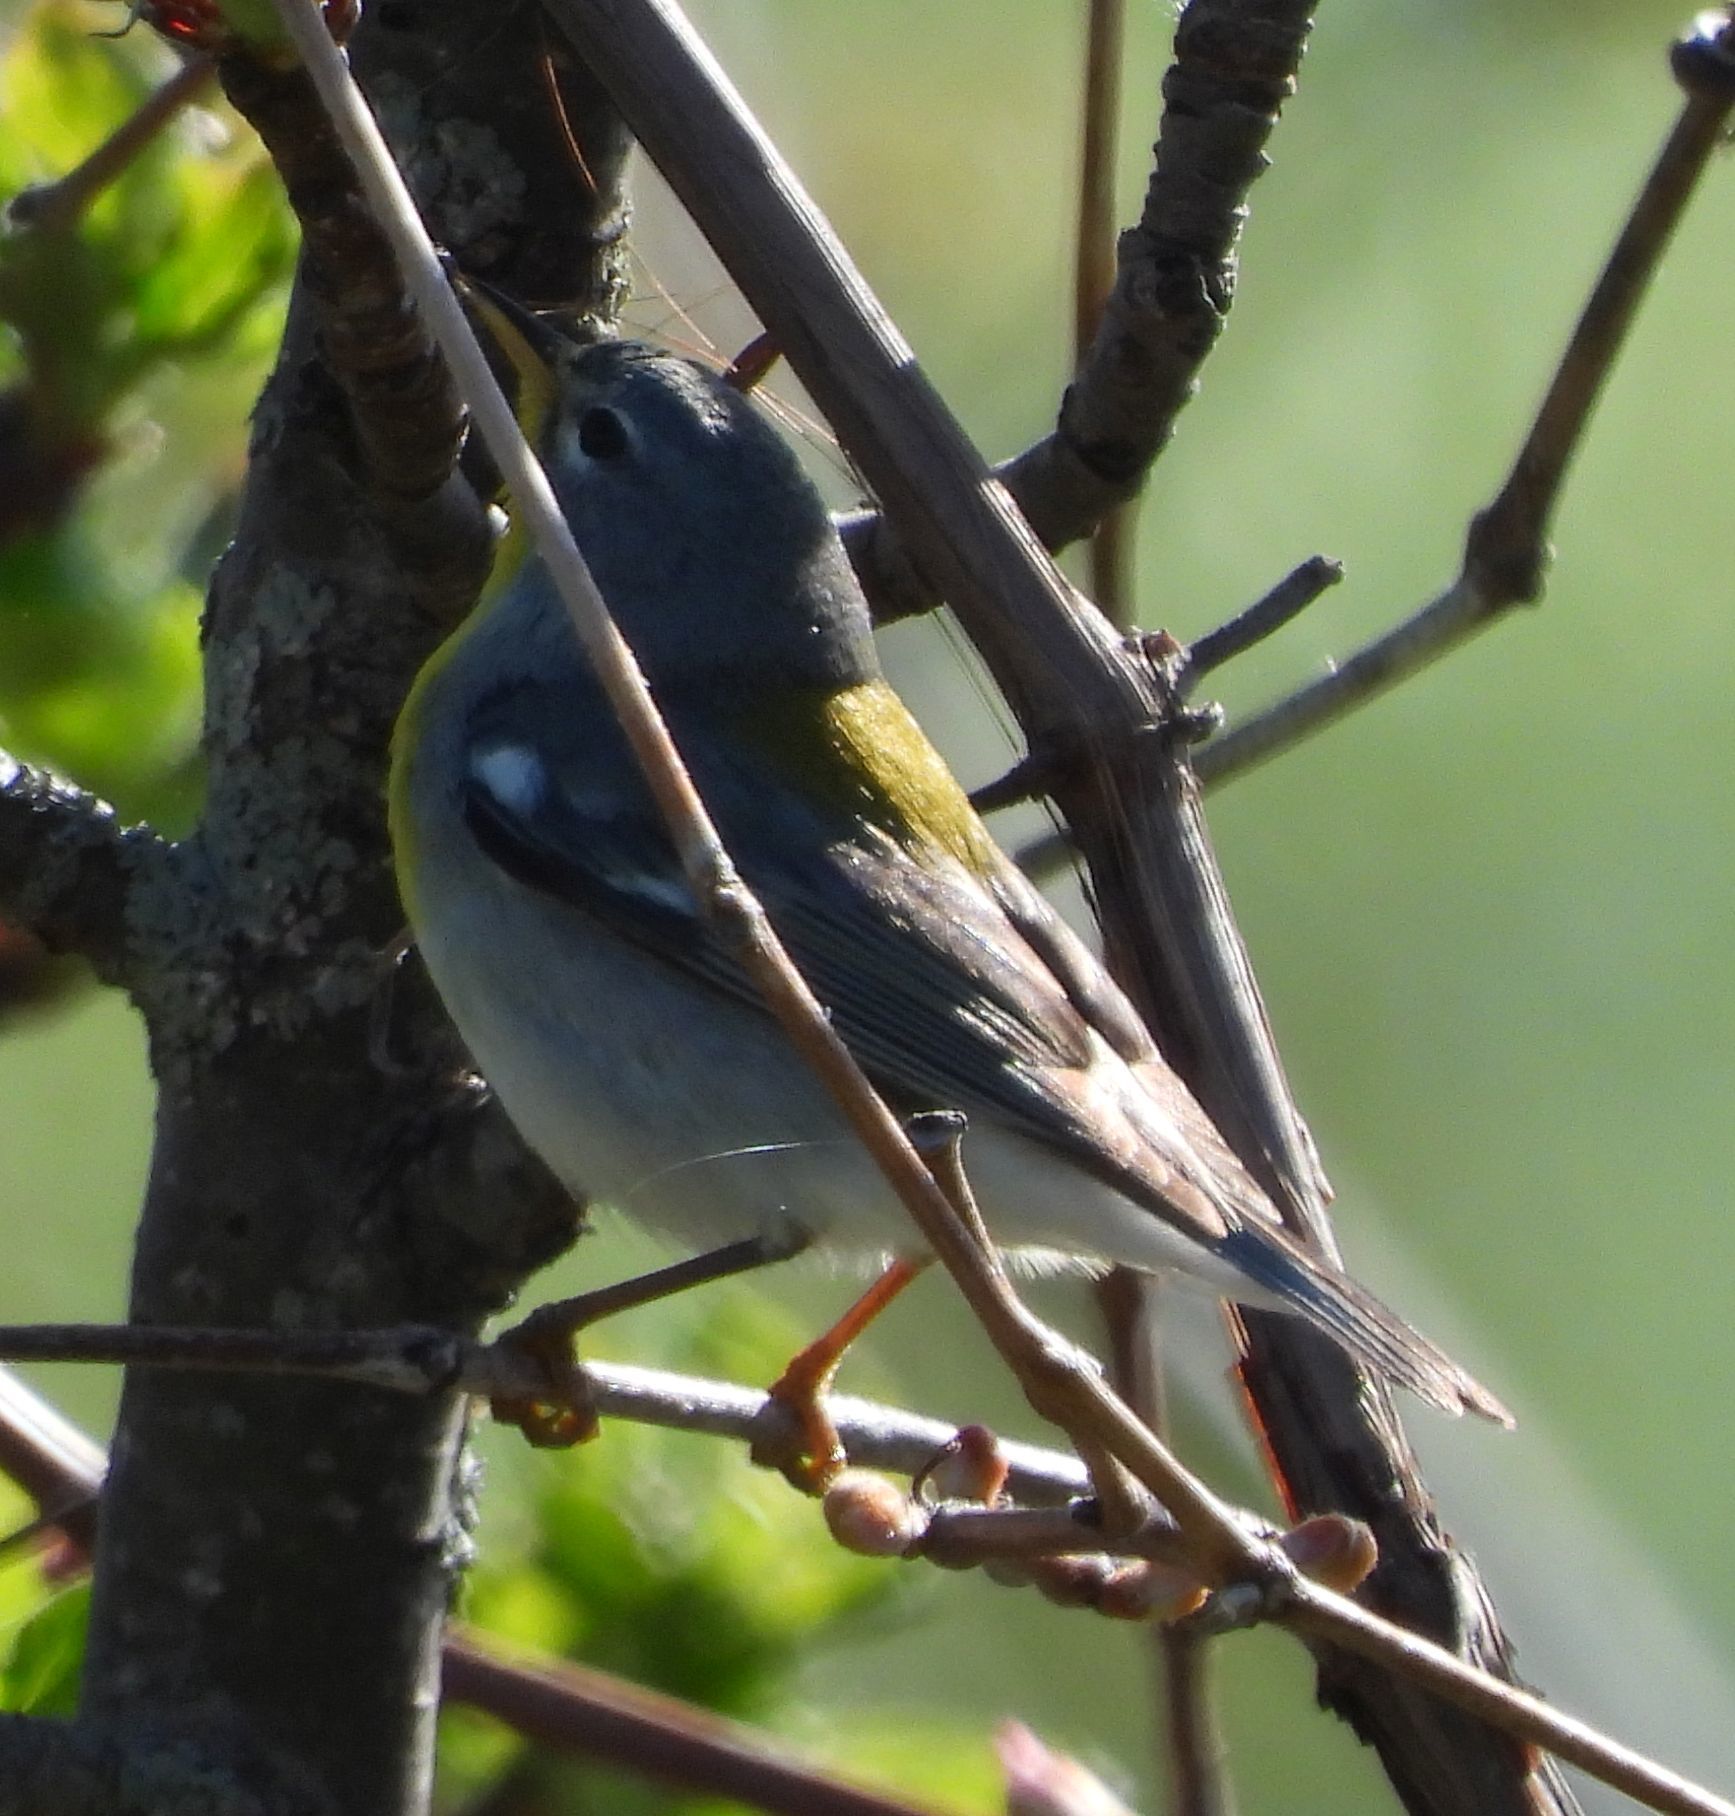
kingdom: Animalia
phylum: Chordata
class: Aves
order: Passeriformes
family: Parulidae
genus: Setophaga
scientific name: Setophaga americana
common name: Northern parula
